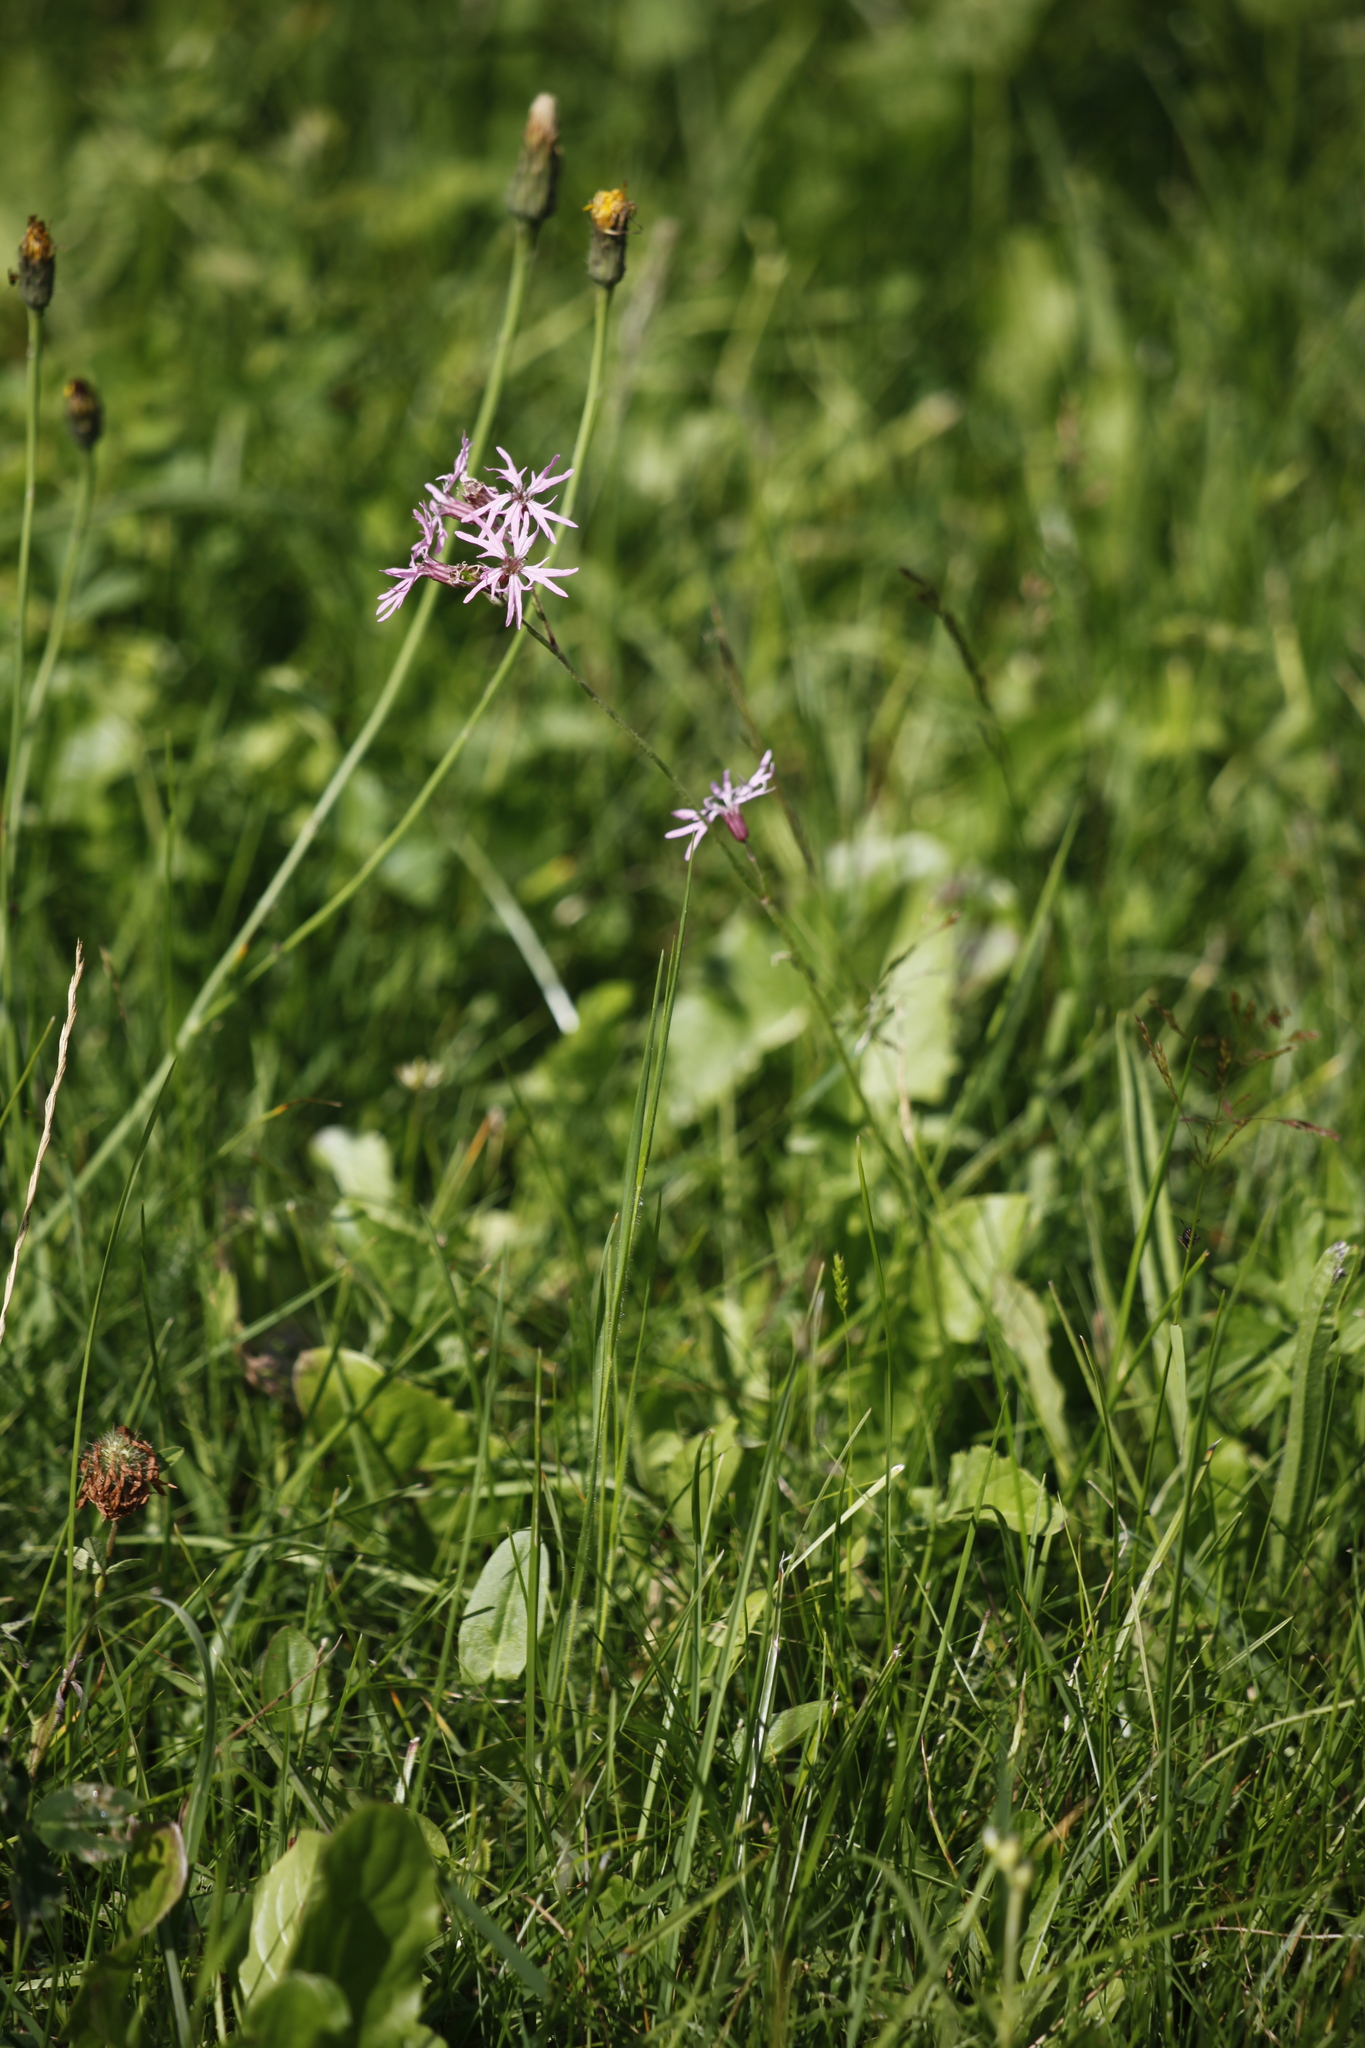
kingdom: Plantae
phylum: Tracheophyta
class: Magnoliopsida
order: Caryophyllales
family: Caryophyllaceae
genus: Silene
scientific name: Silene flos-cuculi
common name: Ragged-robin
